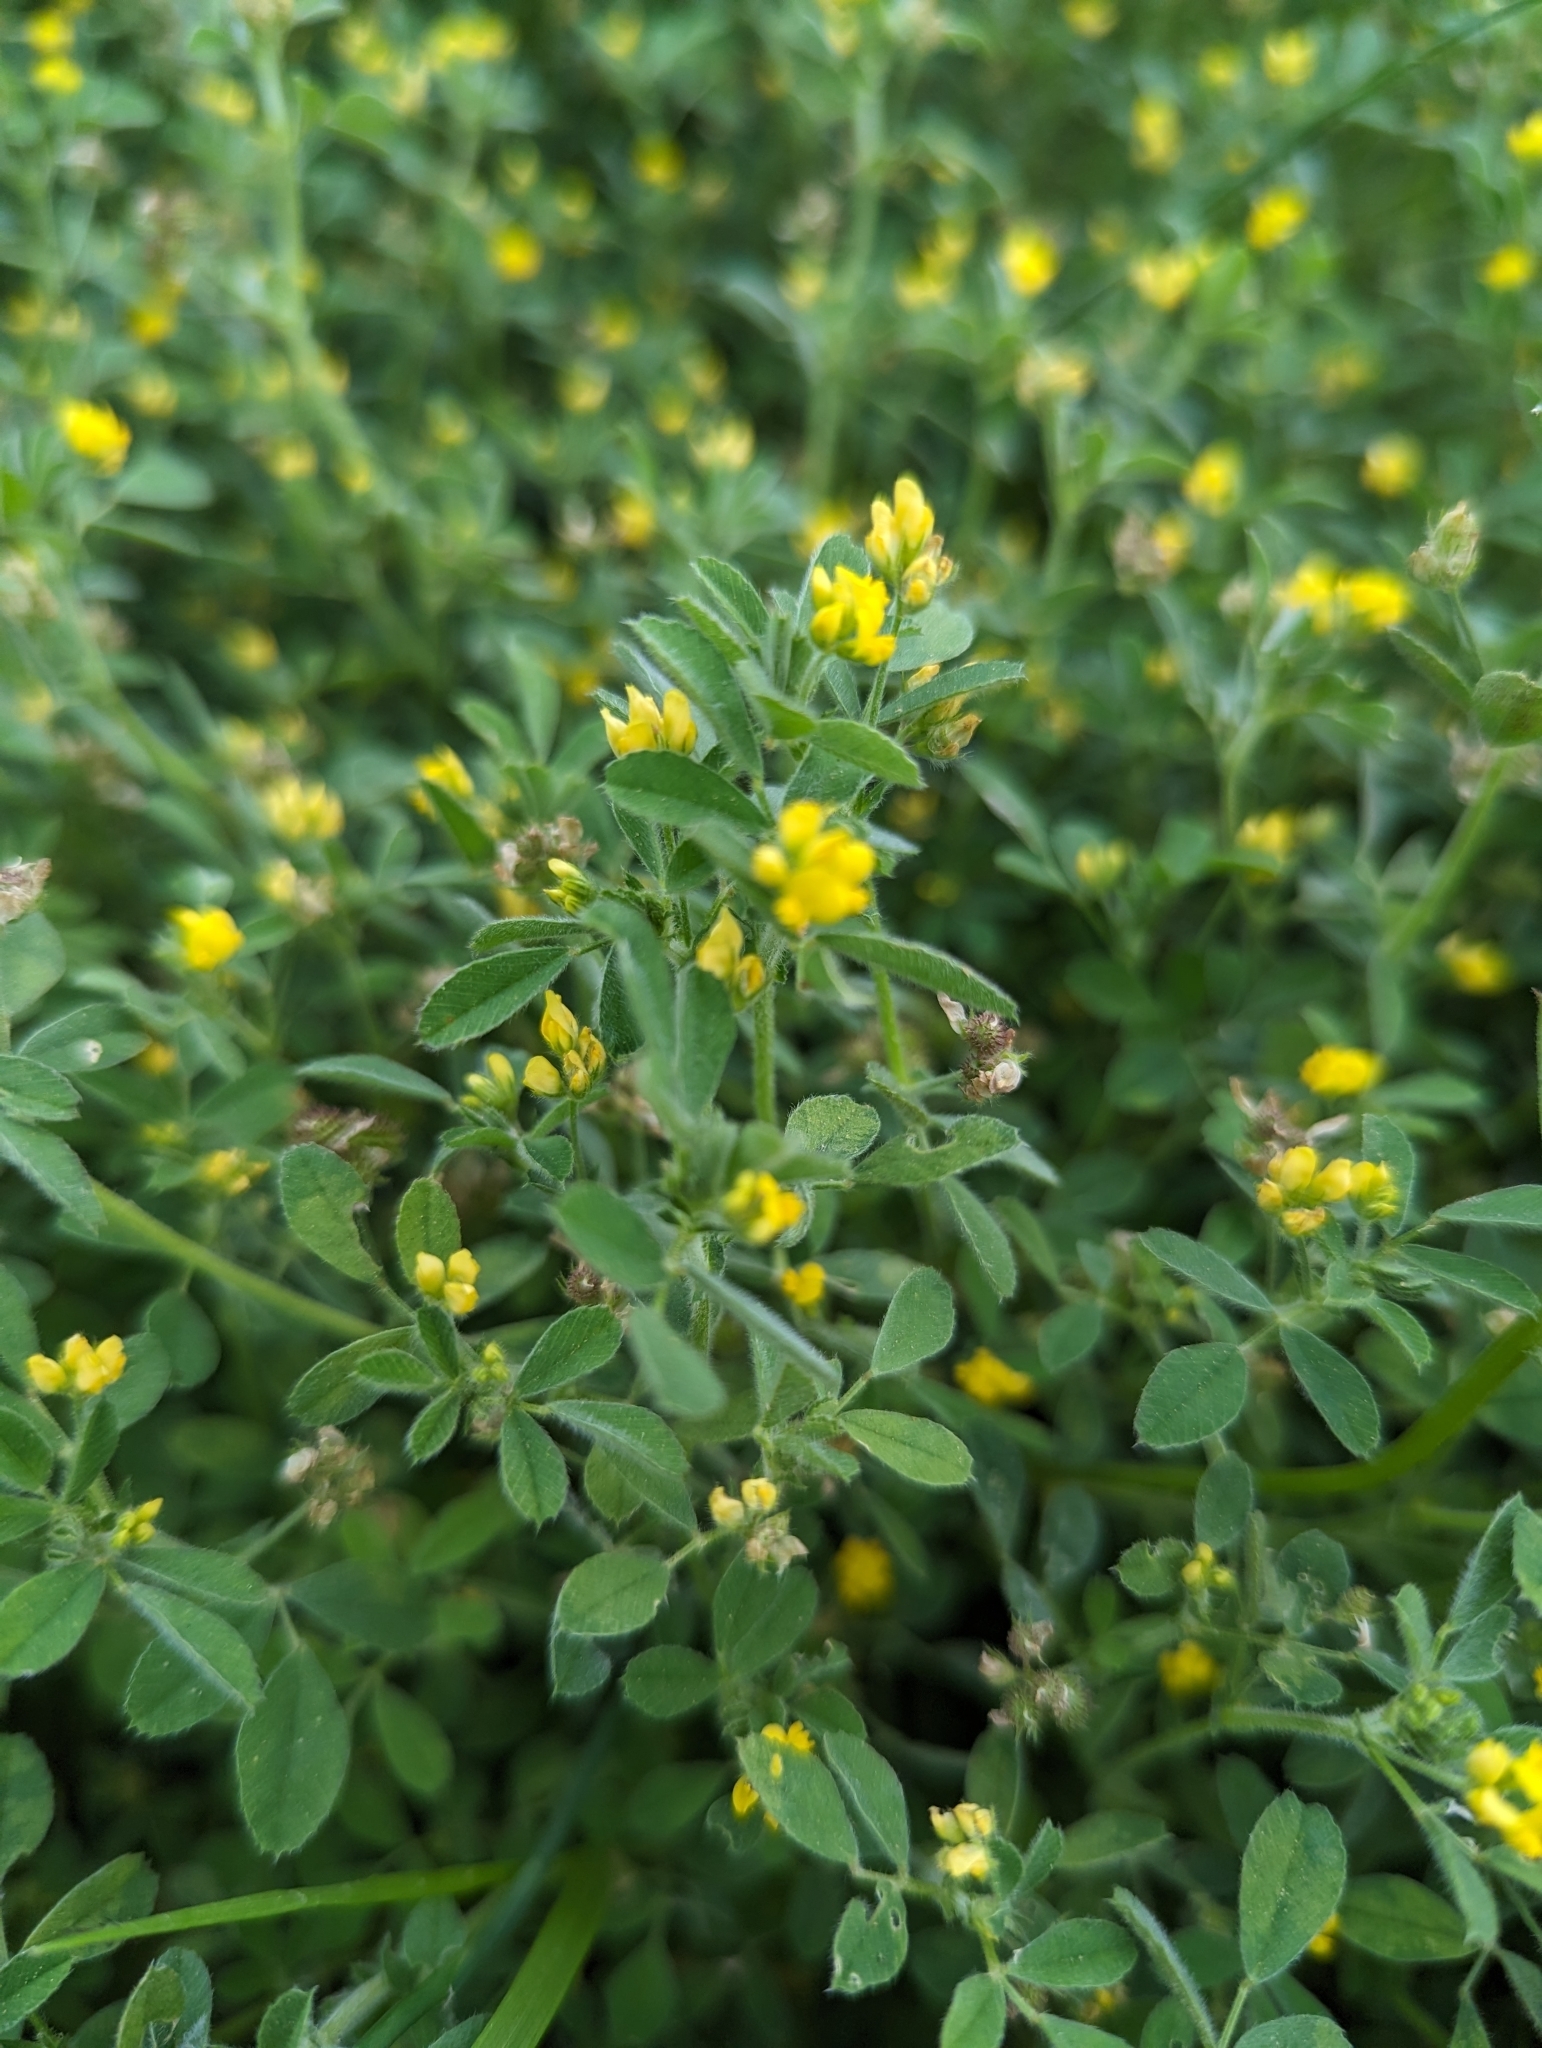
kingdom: Plantae
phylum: Tracheophyta
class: Magnoliopsida
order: Fabales
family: Fabaceae
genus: Medicago
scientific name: Medicago minima
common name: Little bur-clover
